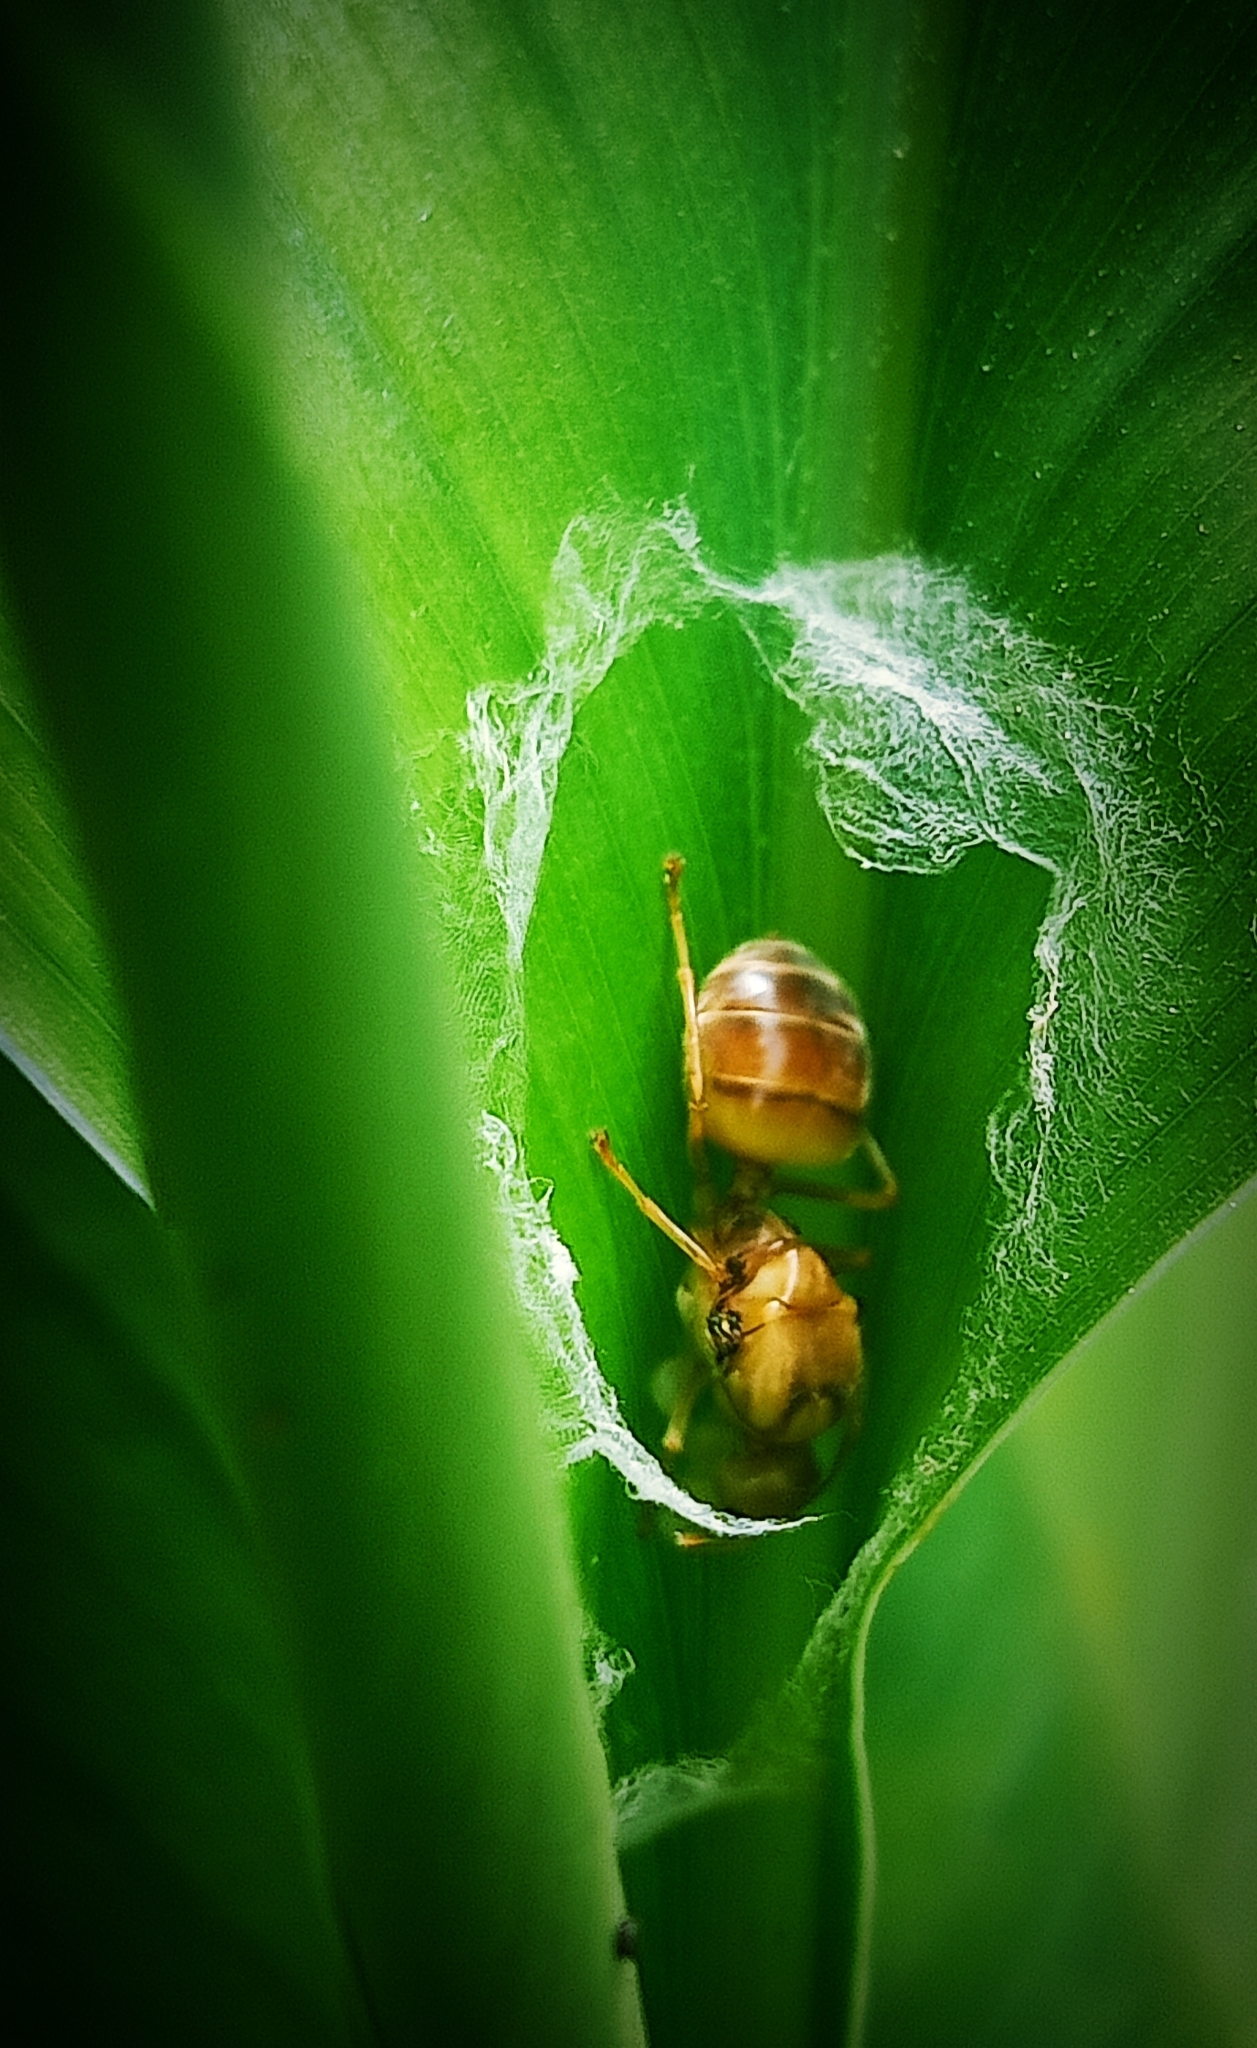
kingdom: Animalia
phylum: Arthropoda
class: Insecta
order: Hymenoptera
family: Formicidae
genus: Oecophylla
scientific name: Oecophylla smaragdina
